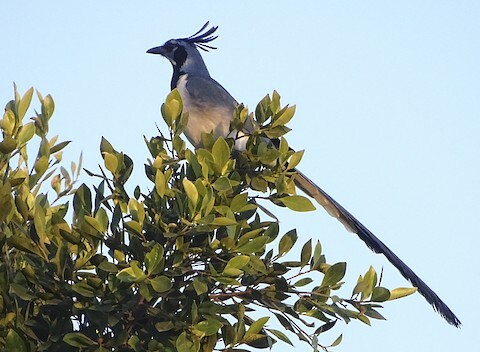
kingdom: Animalia
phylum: Chordata
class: Aves
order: Passeriformes
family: Corvidae
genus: Calocitta
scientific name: Calocitta colliei
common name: Black-throated magpie-jay
